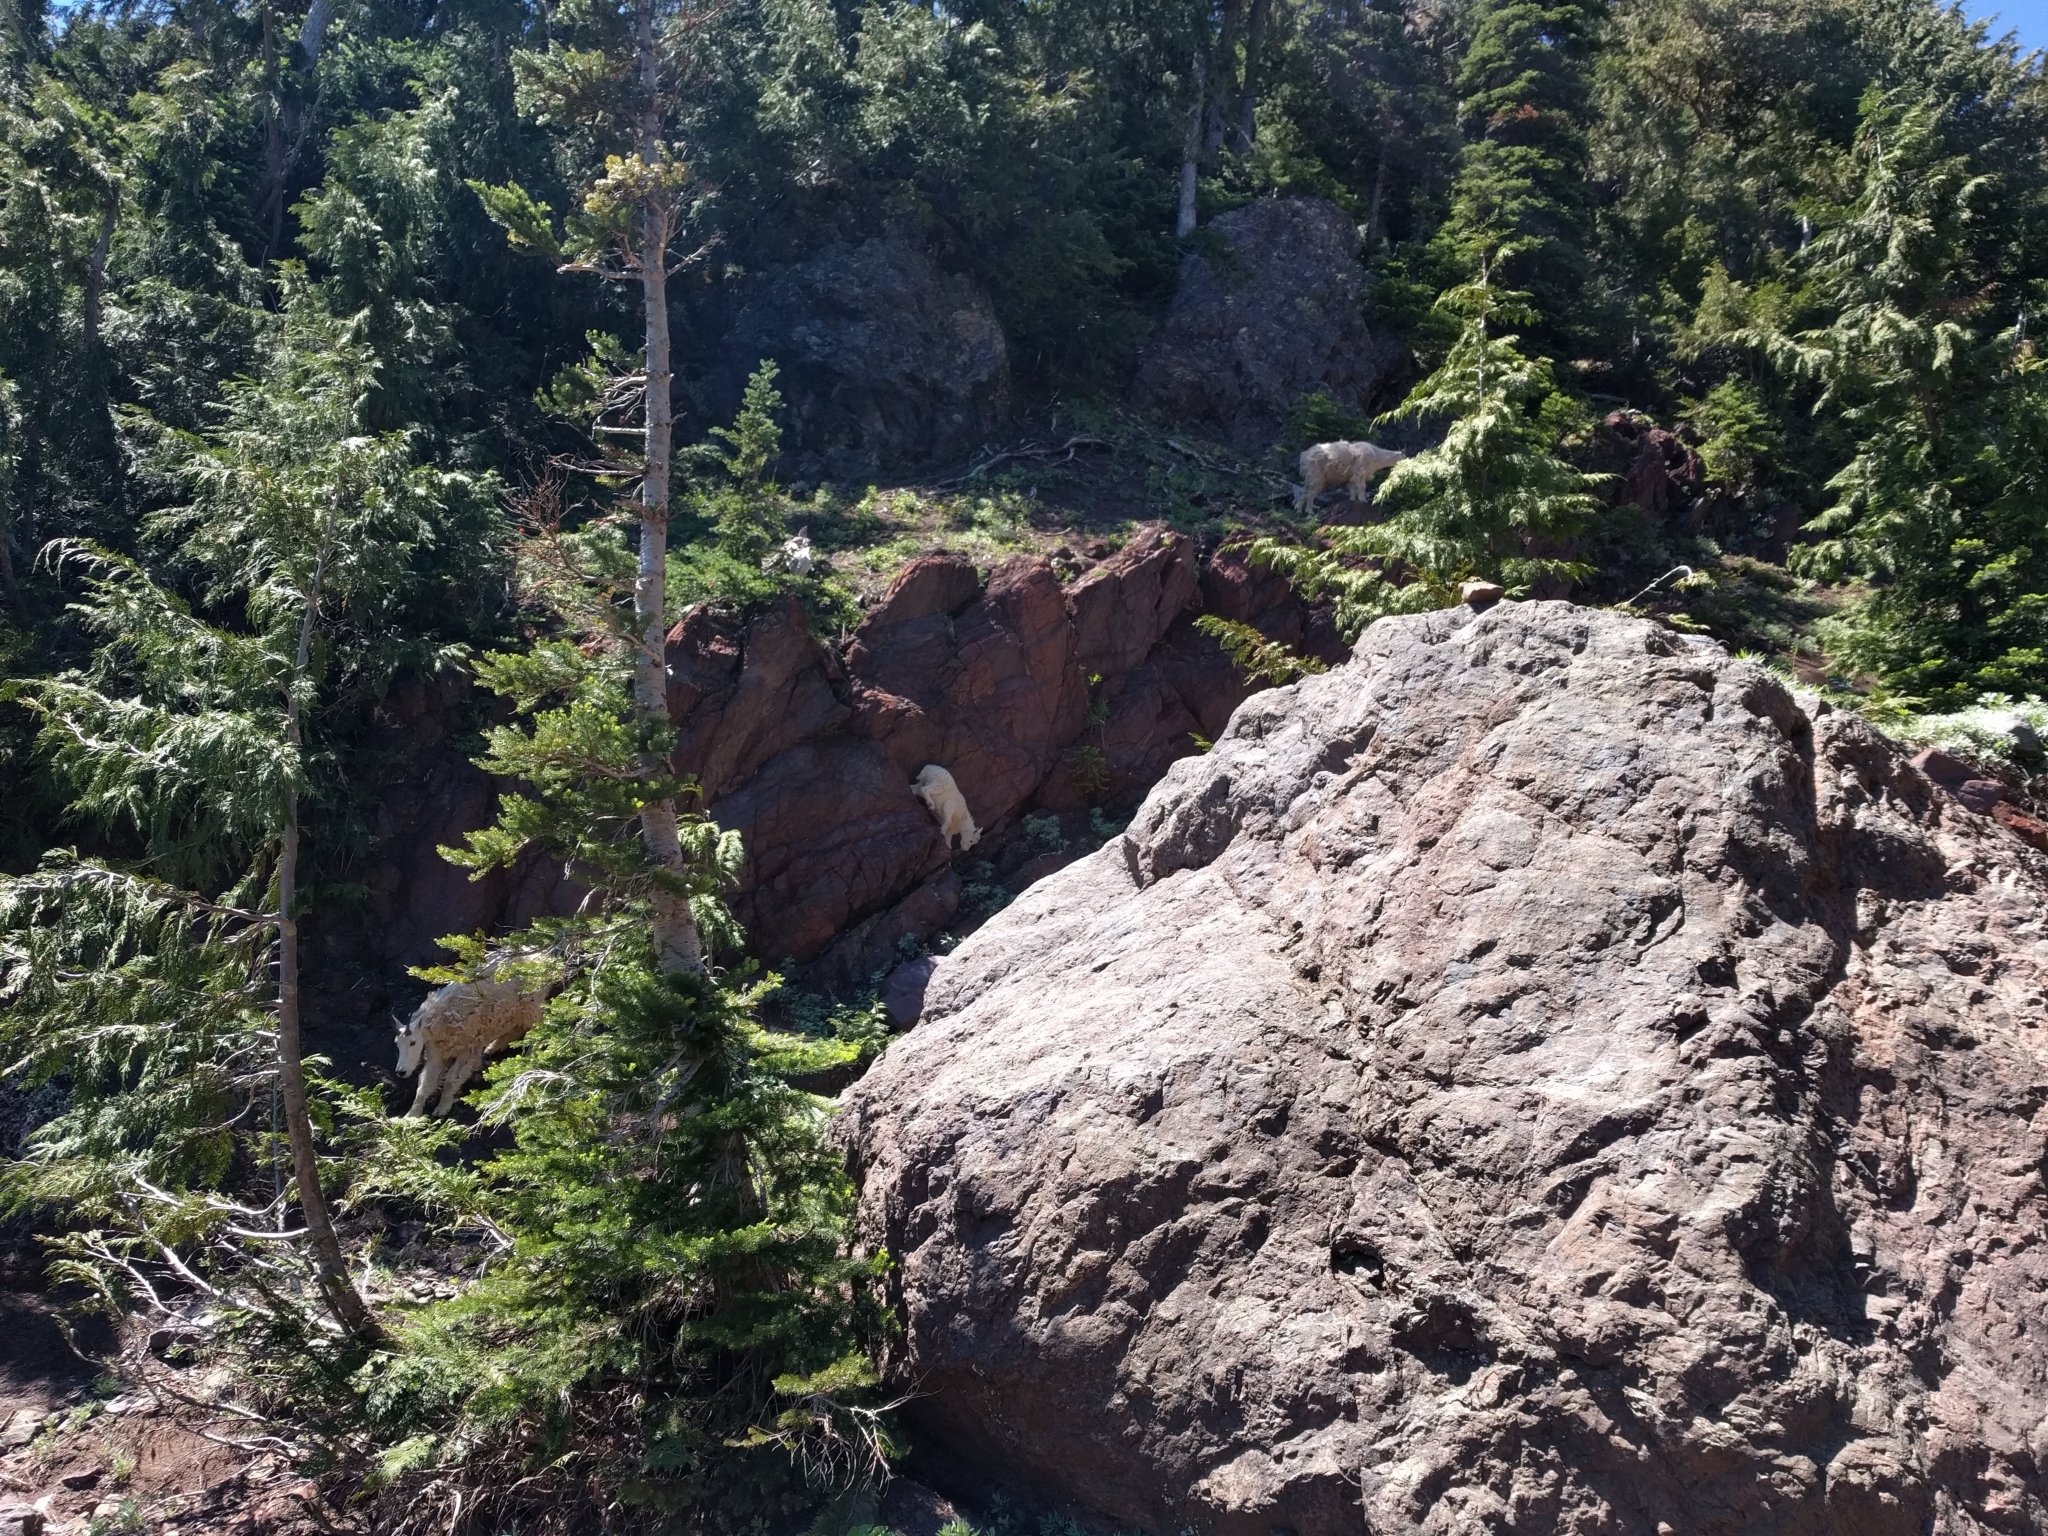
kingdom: Animalia
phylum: Chordata
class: Mammalia
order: Artiodactyla
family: Bovidae
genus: Oreamnos
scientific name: Oreamnos americanus
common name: Mountain goat
